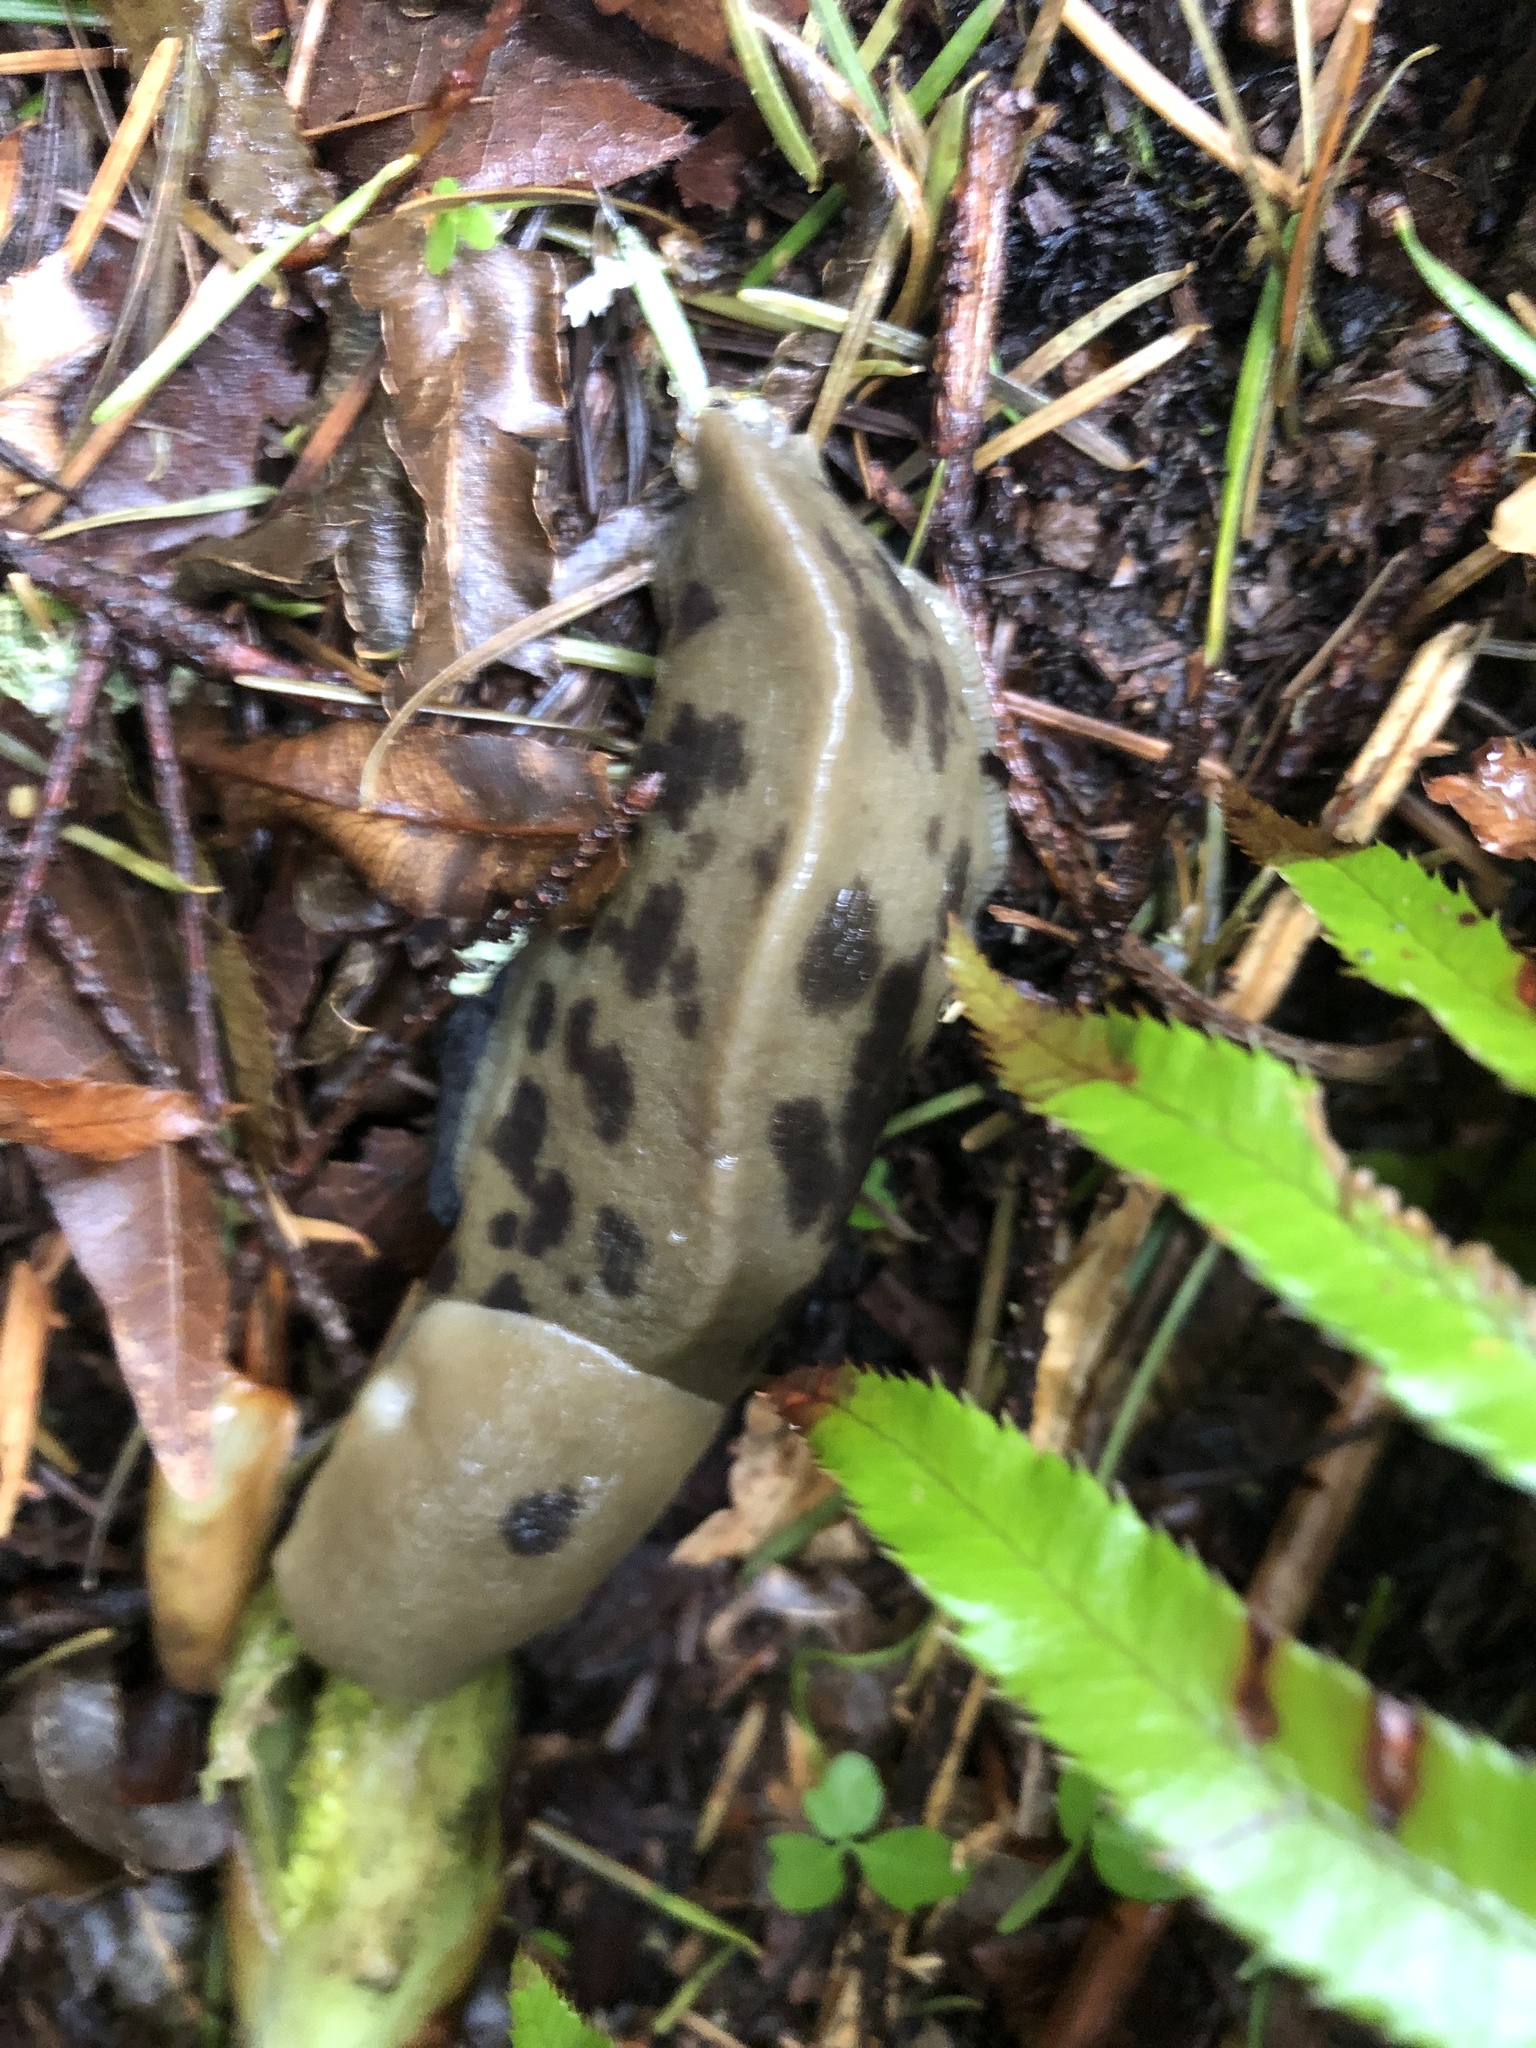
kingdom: Animalia
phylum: Mollusca
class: Gastropoda
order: Stylommatophora
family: Ariolimacidae
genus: Ariolimax
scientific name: Ariolimax columbianus
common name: Pacific banana slug
